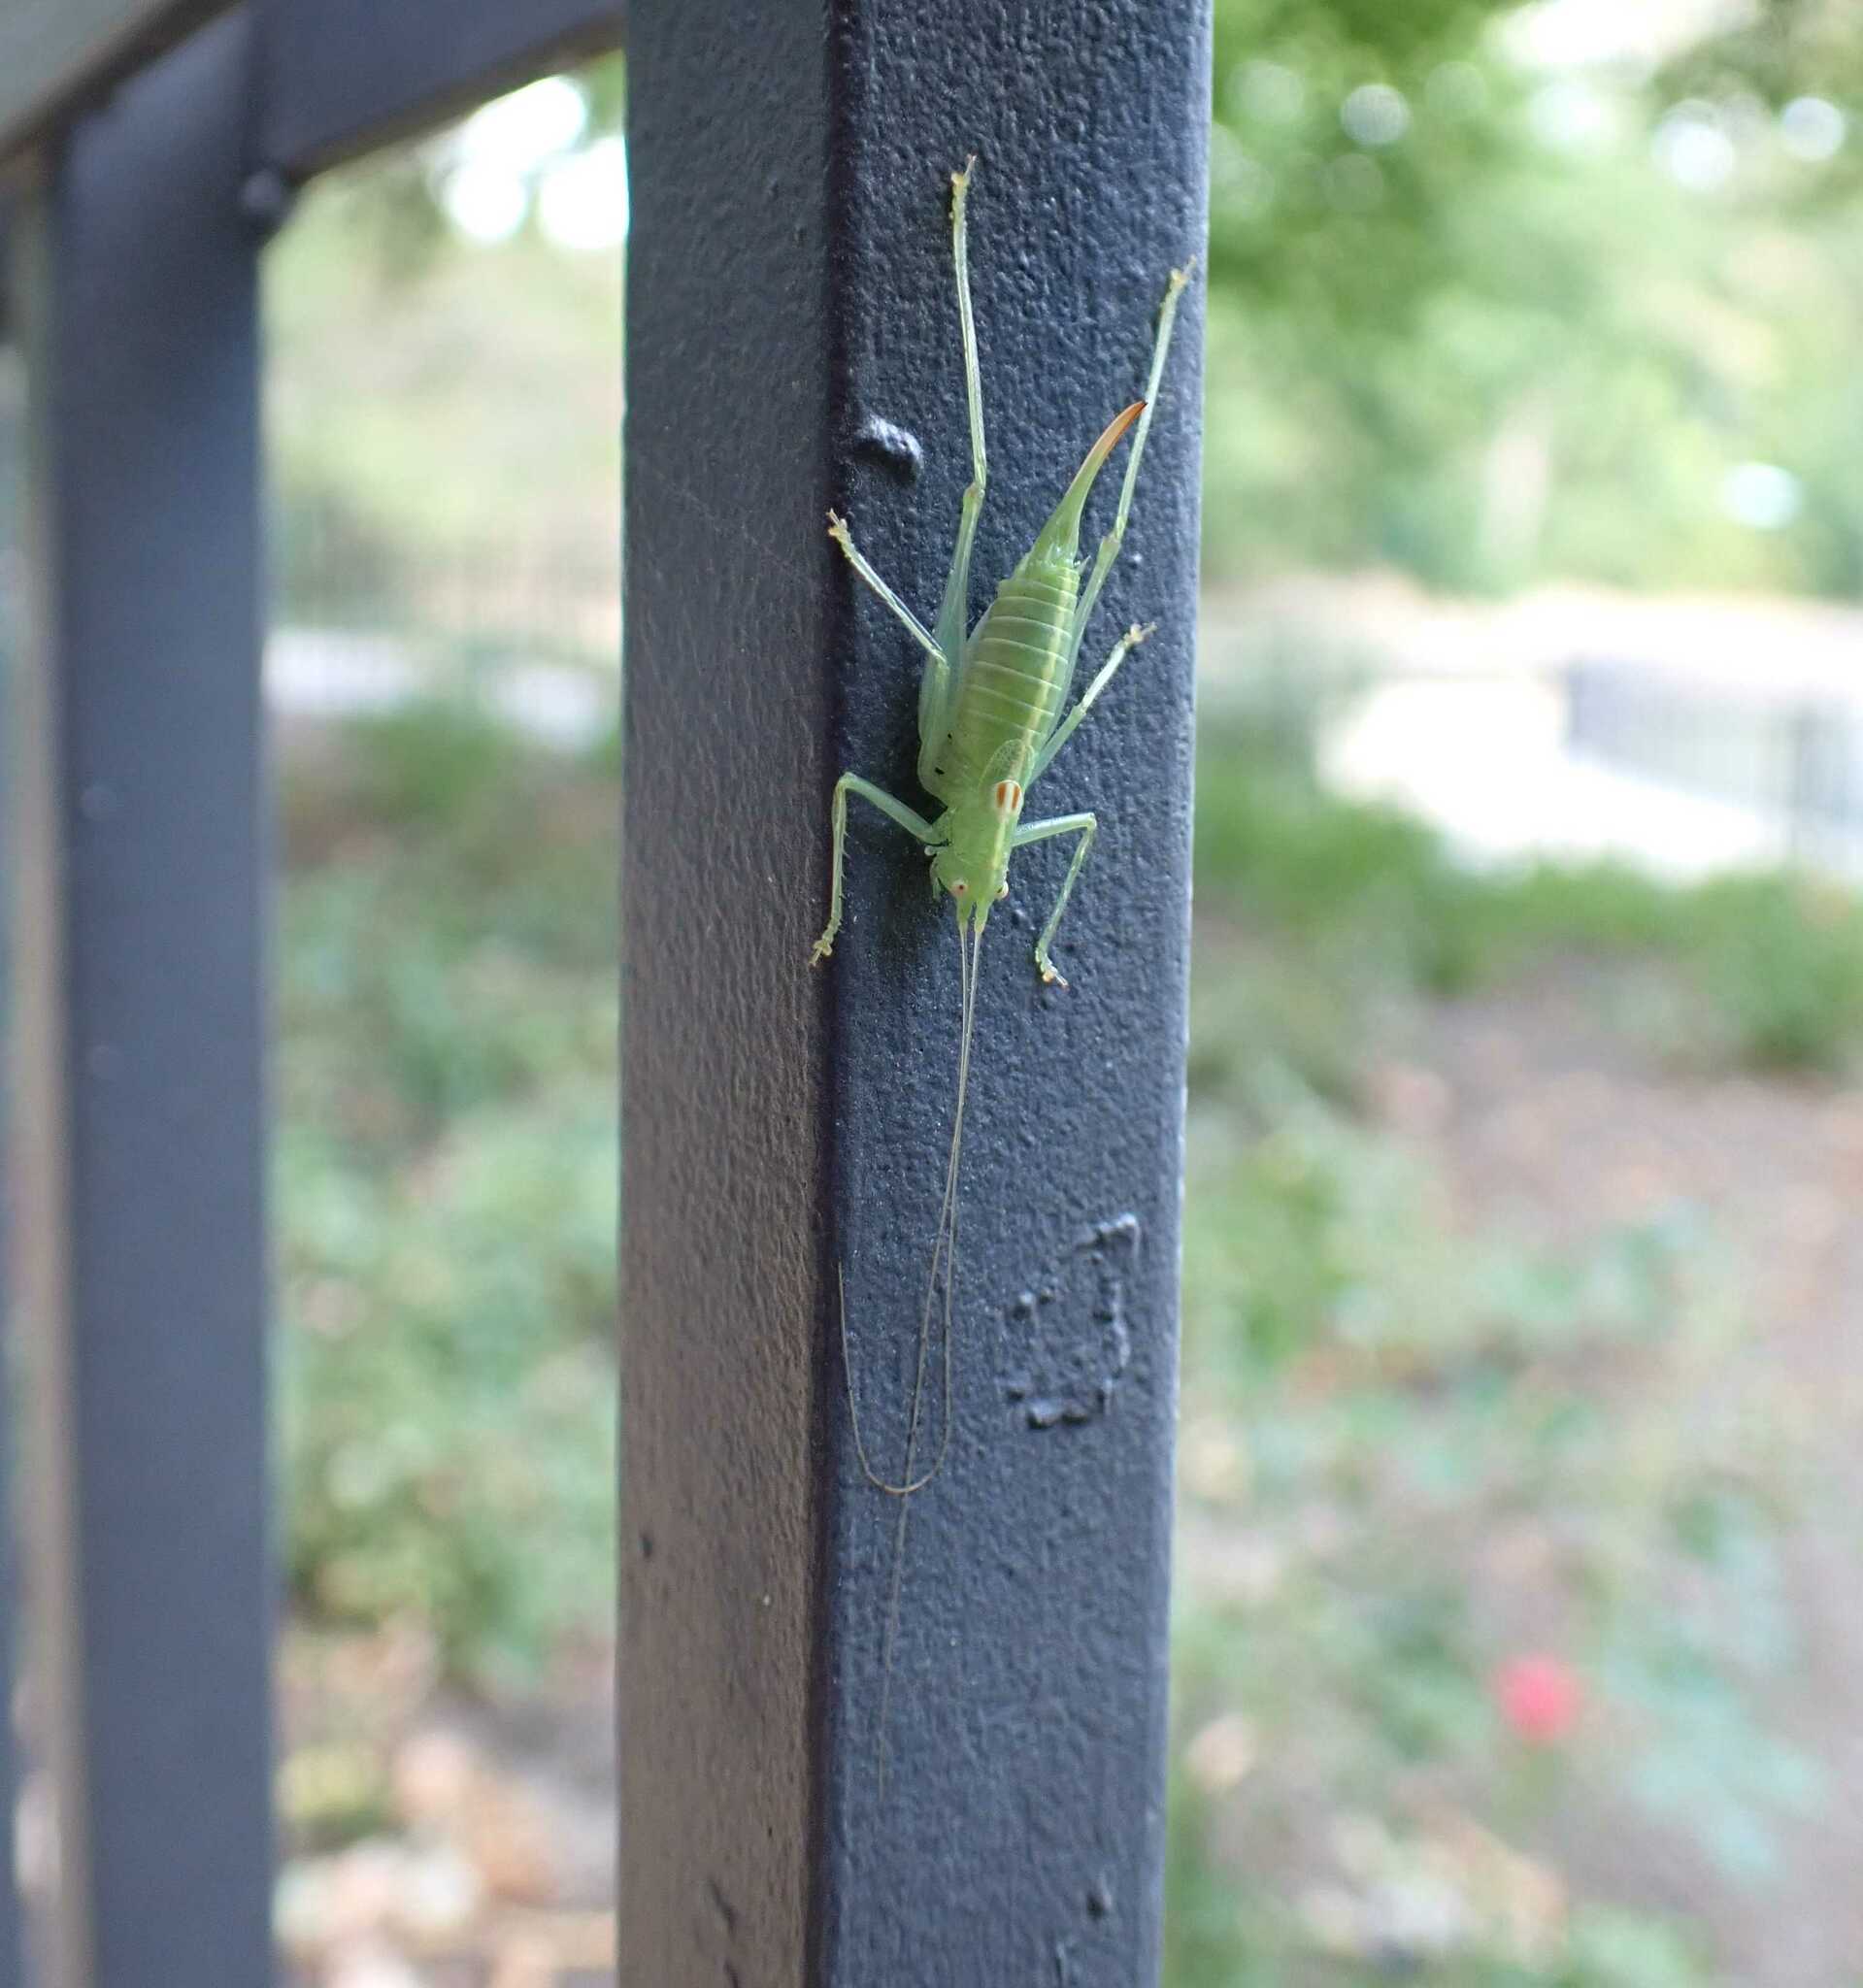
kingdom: Animalia
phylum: Arthropoda
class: Insecta
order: Orthoptera
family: Tettigoniidae
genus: Meconema
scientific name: Meconema meridionale
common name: Southern oak bush-cricket
